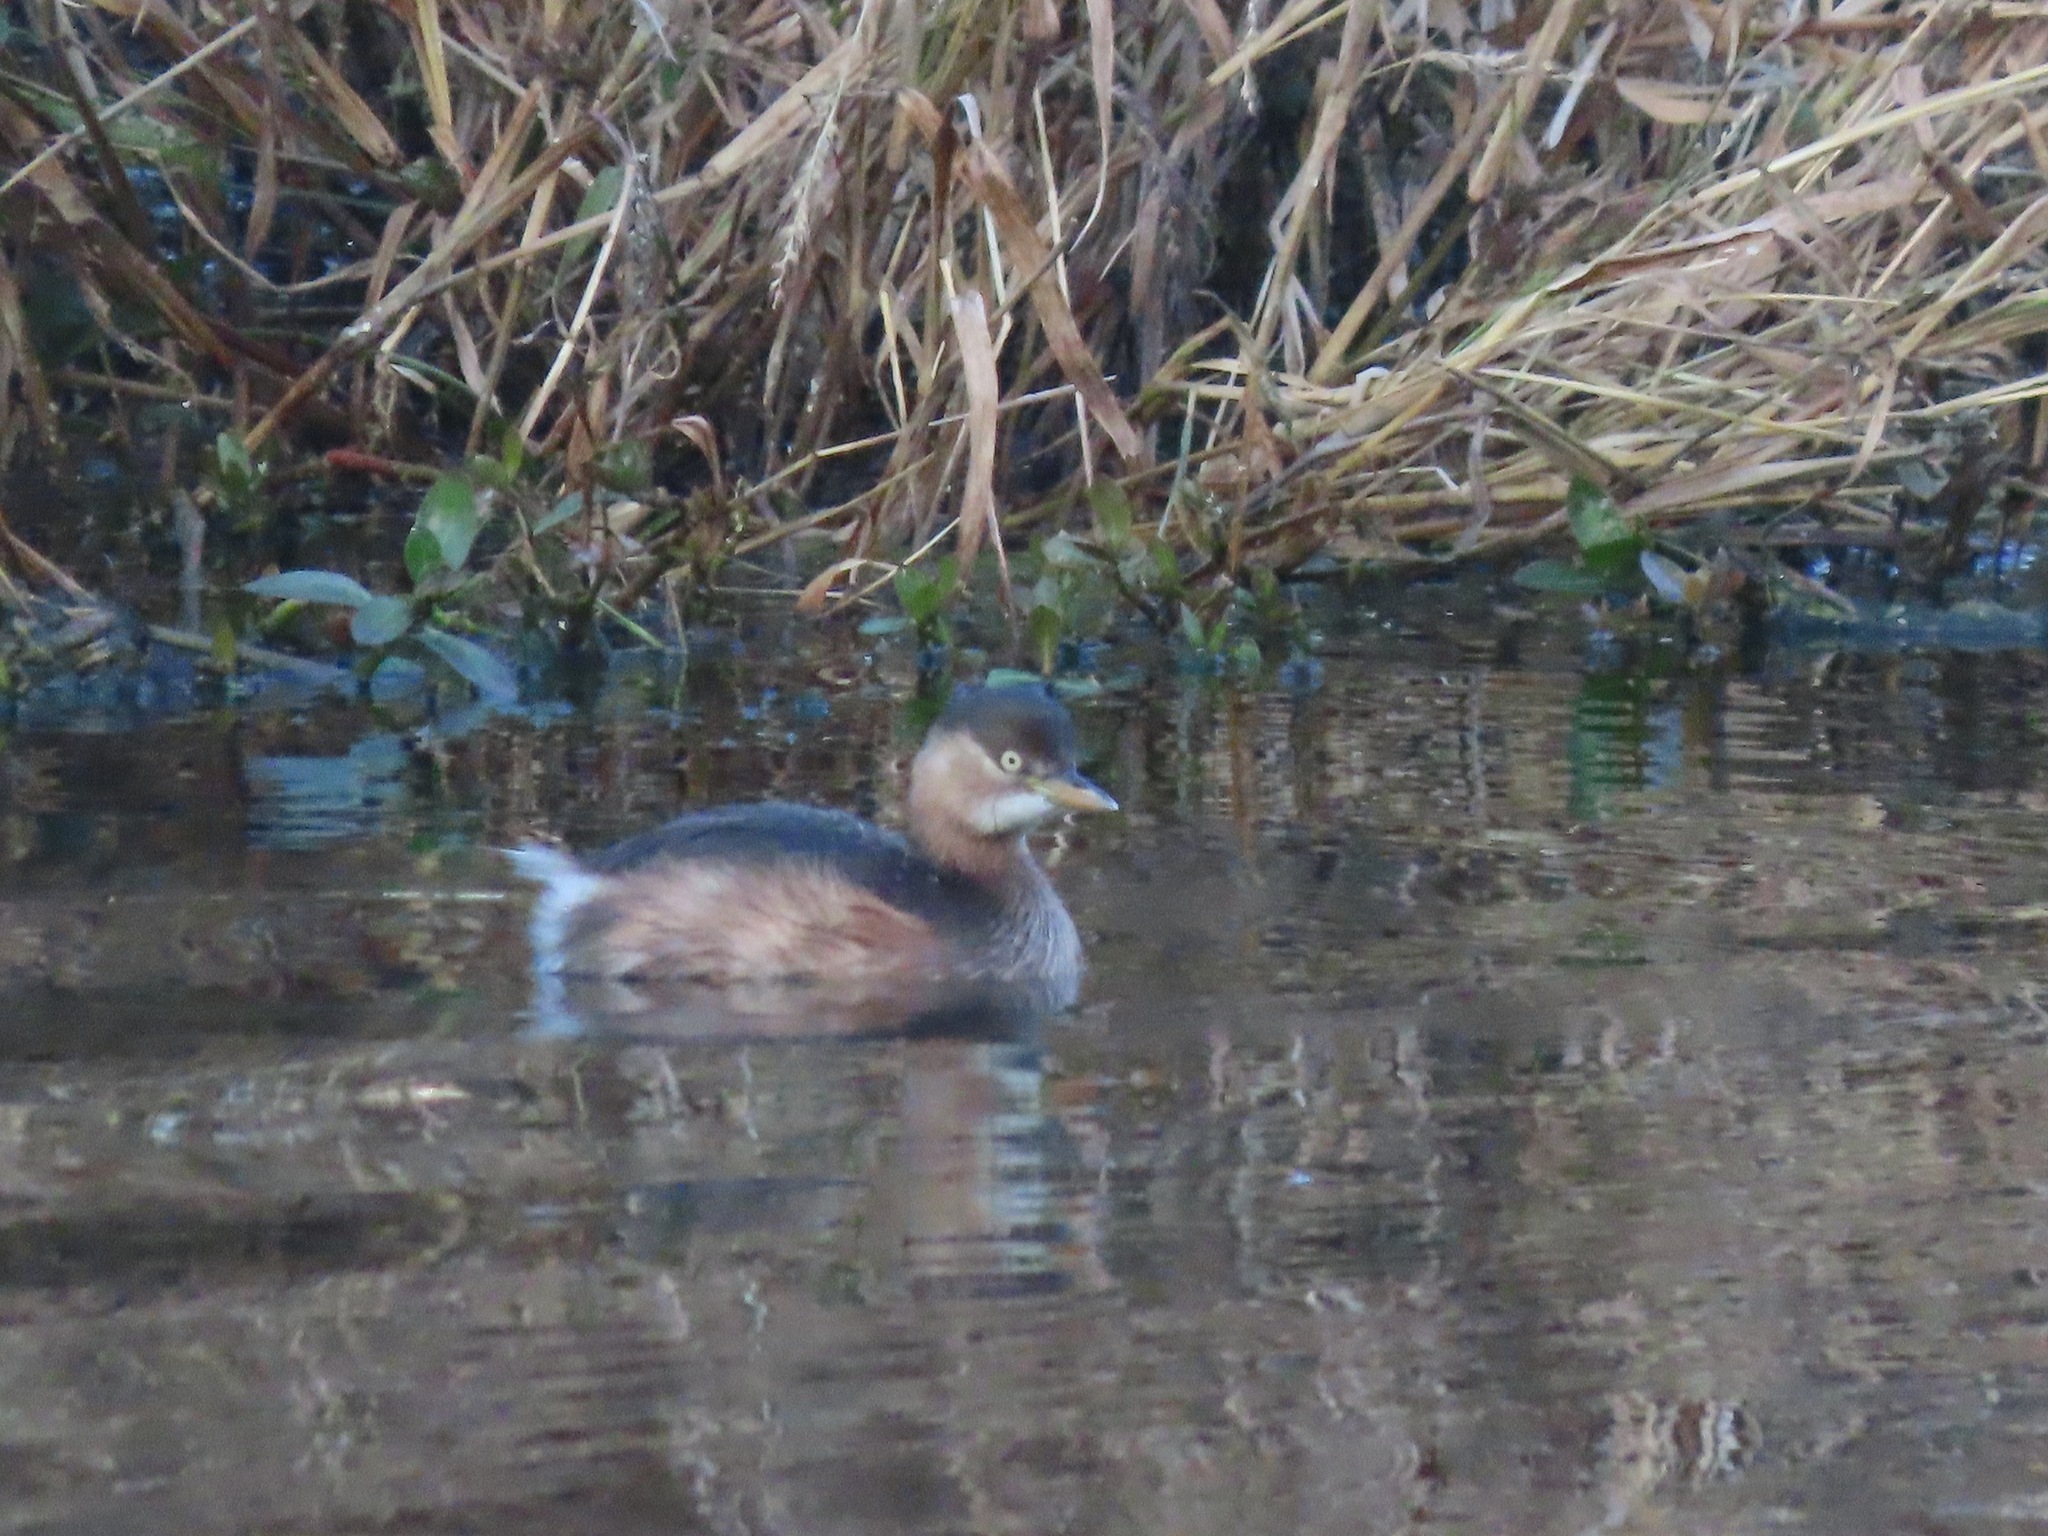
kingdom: Animalia
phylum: Chordata
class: Aves
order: Podicipediformes
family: Podicipedidae
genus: Tachybaptus
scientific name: Tachybaptus ruficollis
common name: Little grebe
